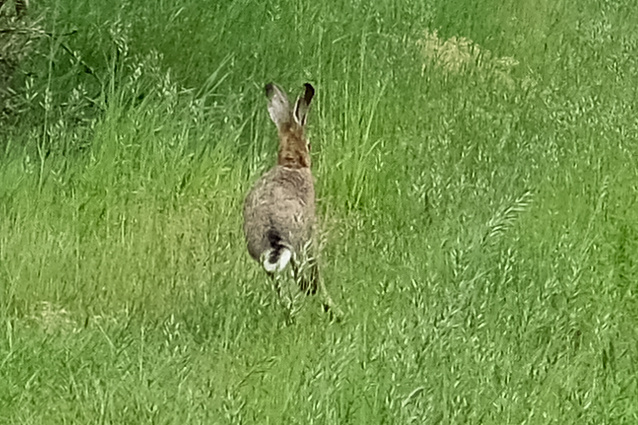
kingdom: Animalia
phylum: Chordata
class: Mammalia
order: Lagomorpha
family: Leporidae
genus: Lepus
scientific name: Lepus europaeus
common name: European hare
